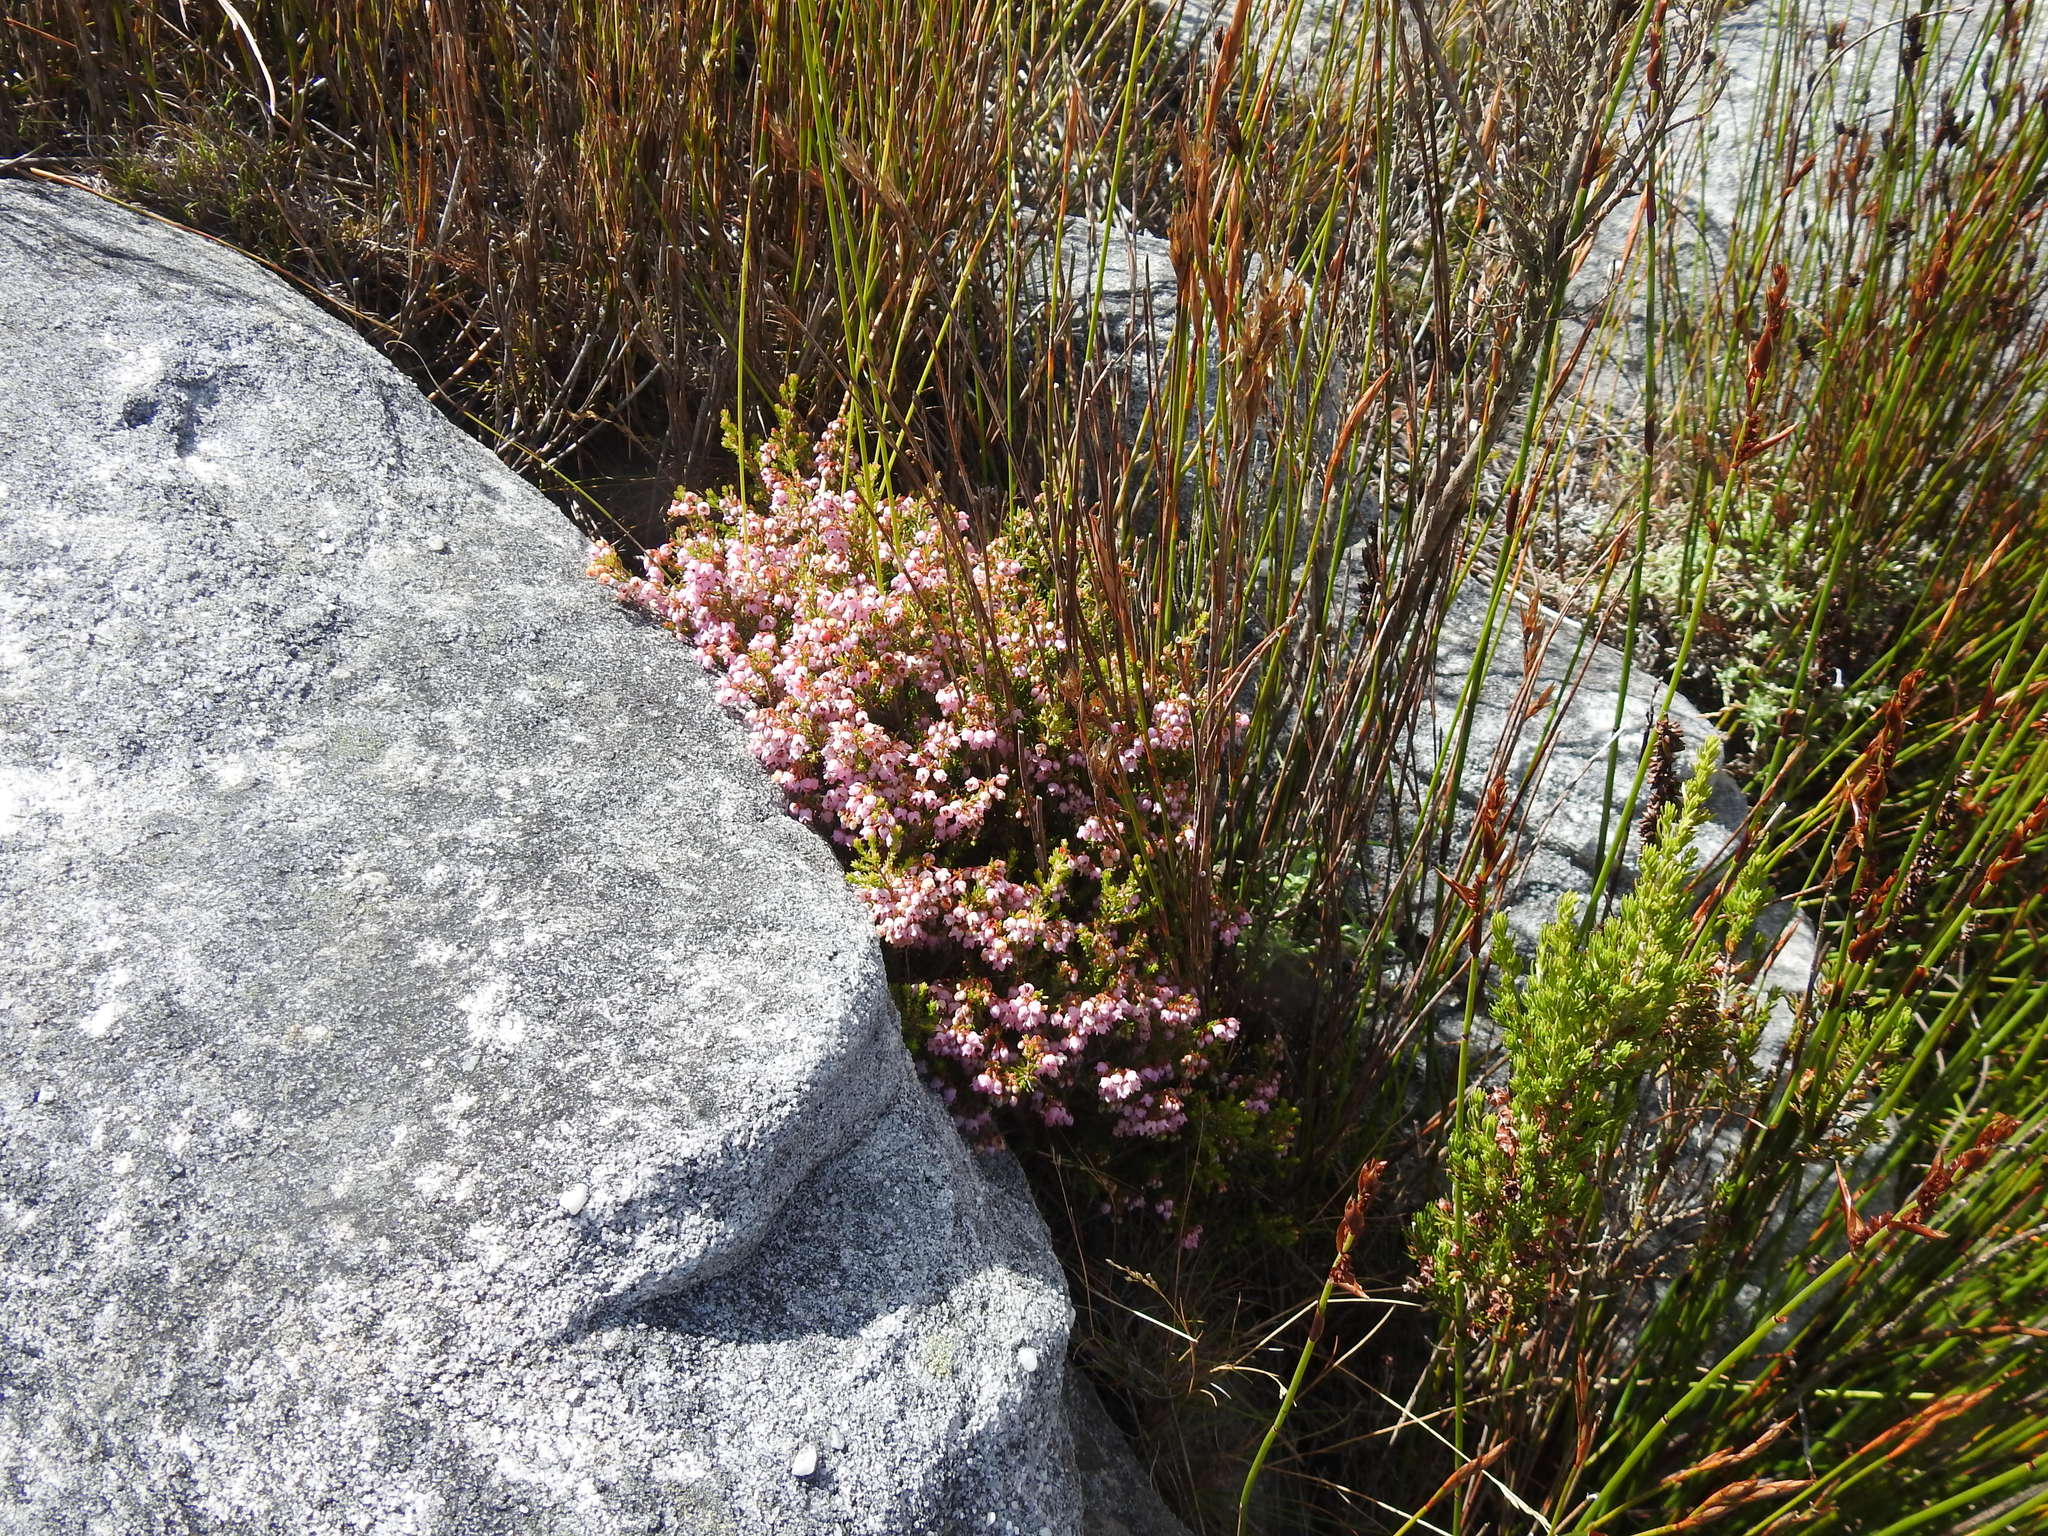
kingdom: Plantae
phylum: Tracheophyta
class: Magnoliopsida
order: Ericales
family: Ericaceae
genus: Erica
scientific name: Erica curvirostris
